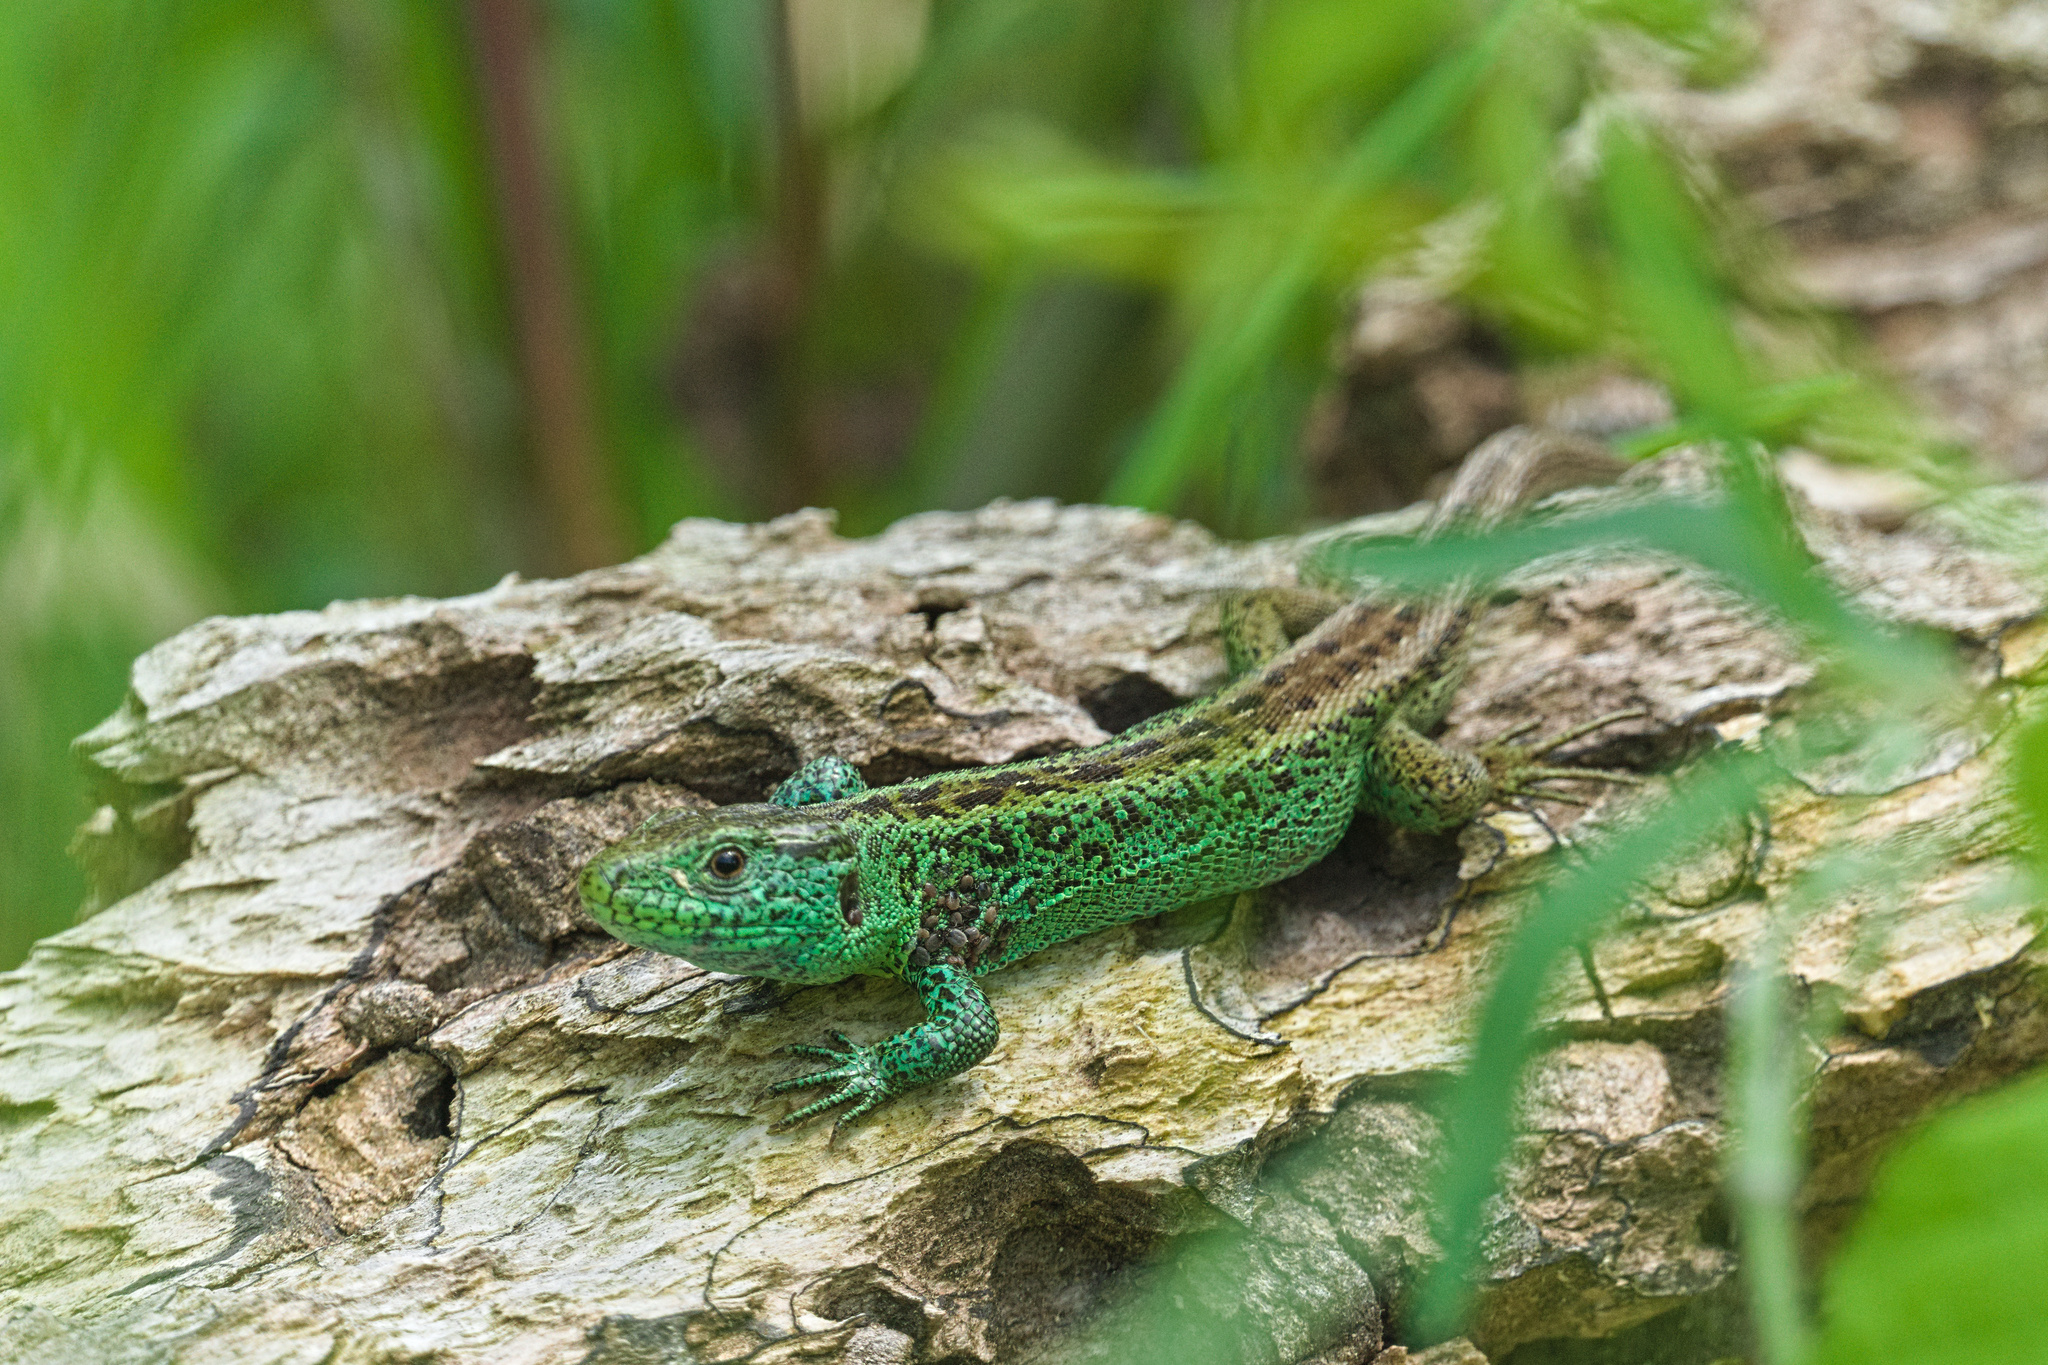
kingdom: Animalia
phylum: Chordata
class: Squamata
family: Lacertidae
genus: Lacerta
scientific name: Lacerta agilis
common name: Sand lizard
